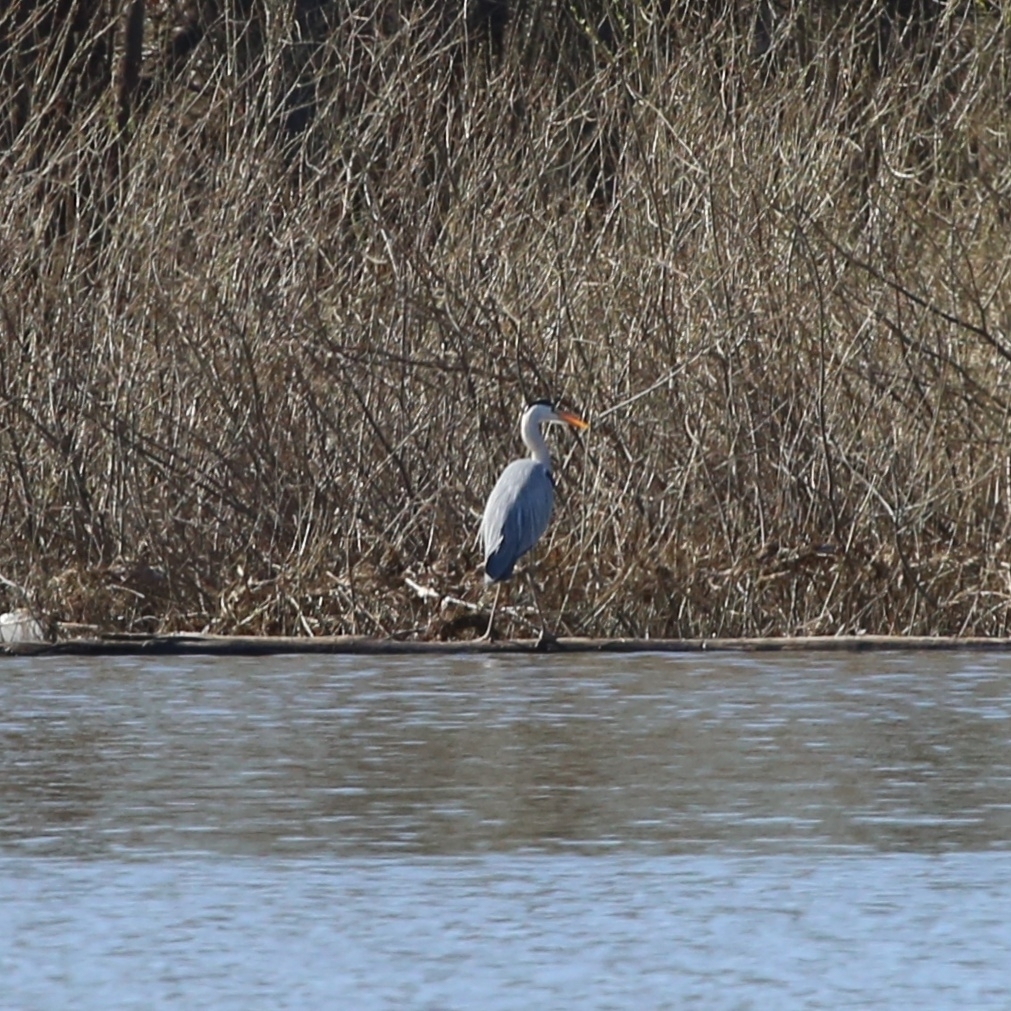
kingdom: Animalia
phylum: Chordata
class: Aves
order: Pelecaniformes
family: Ardeidae
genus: Ardea
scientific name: Ardea cinerea
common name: Grey heron
